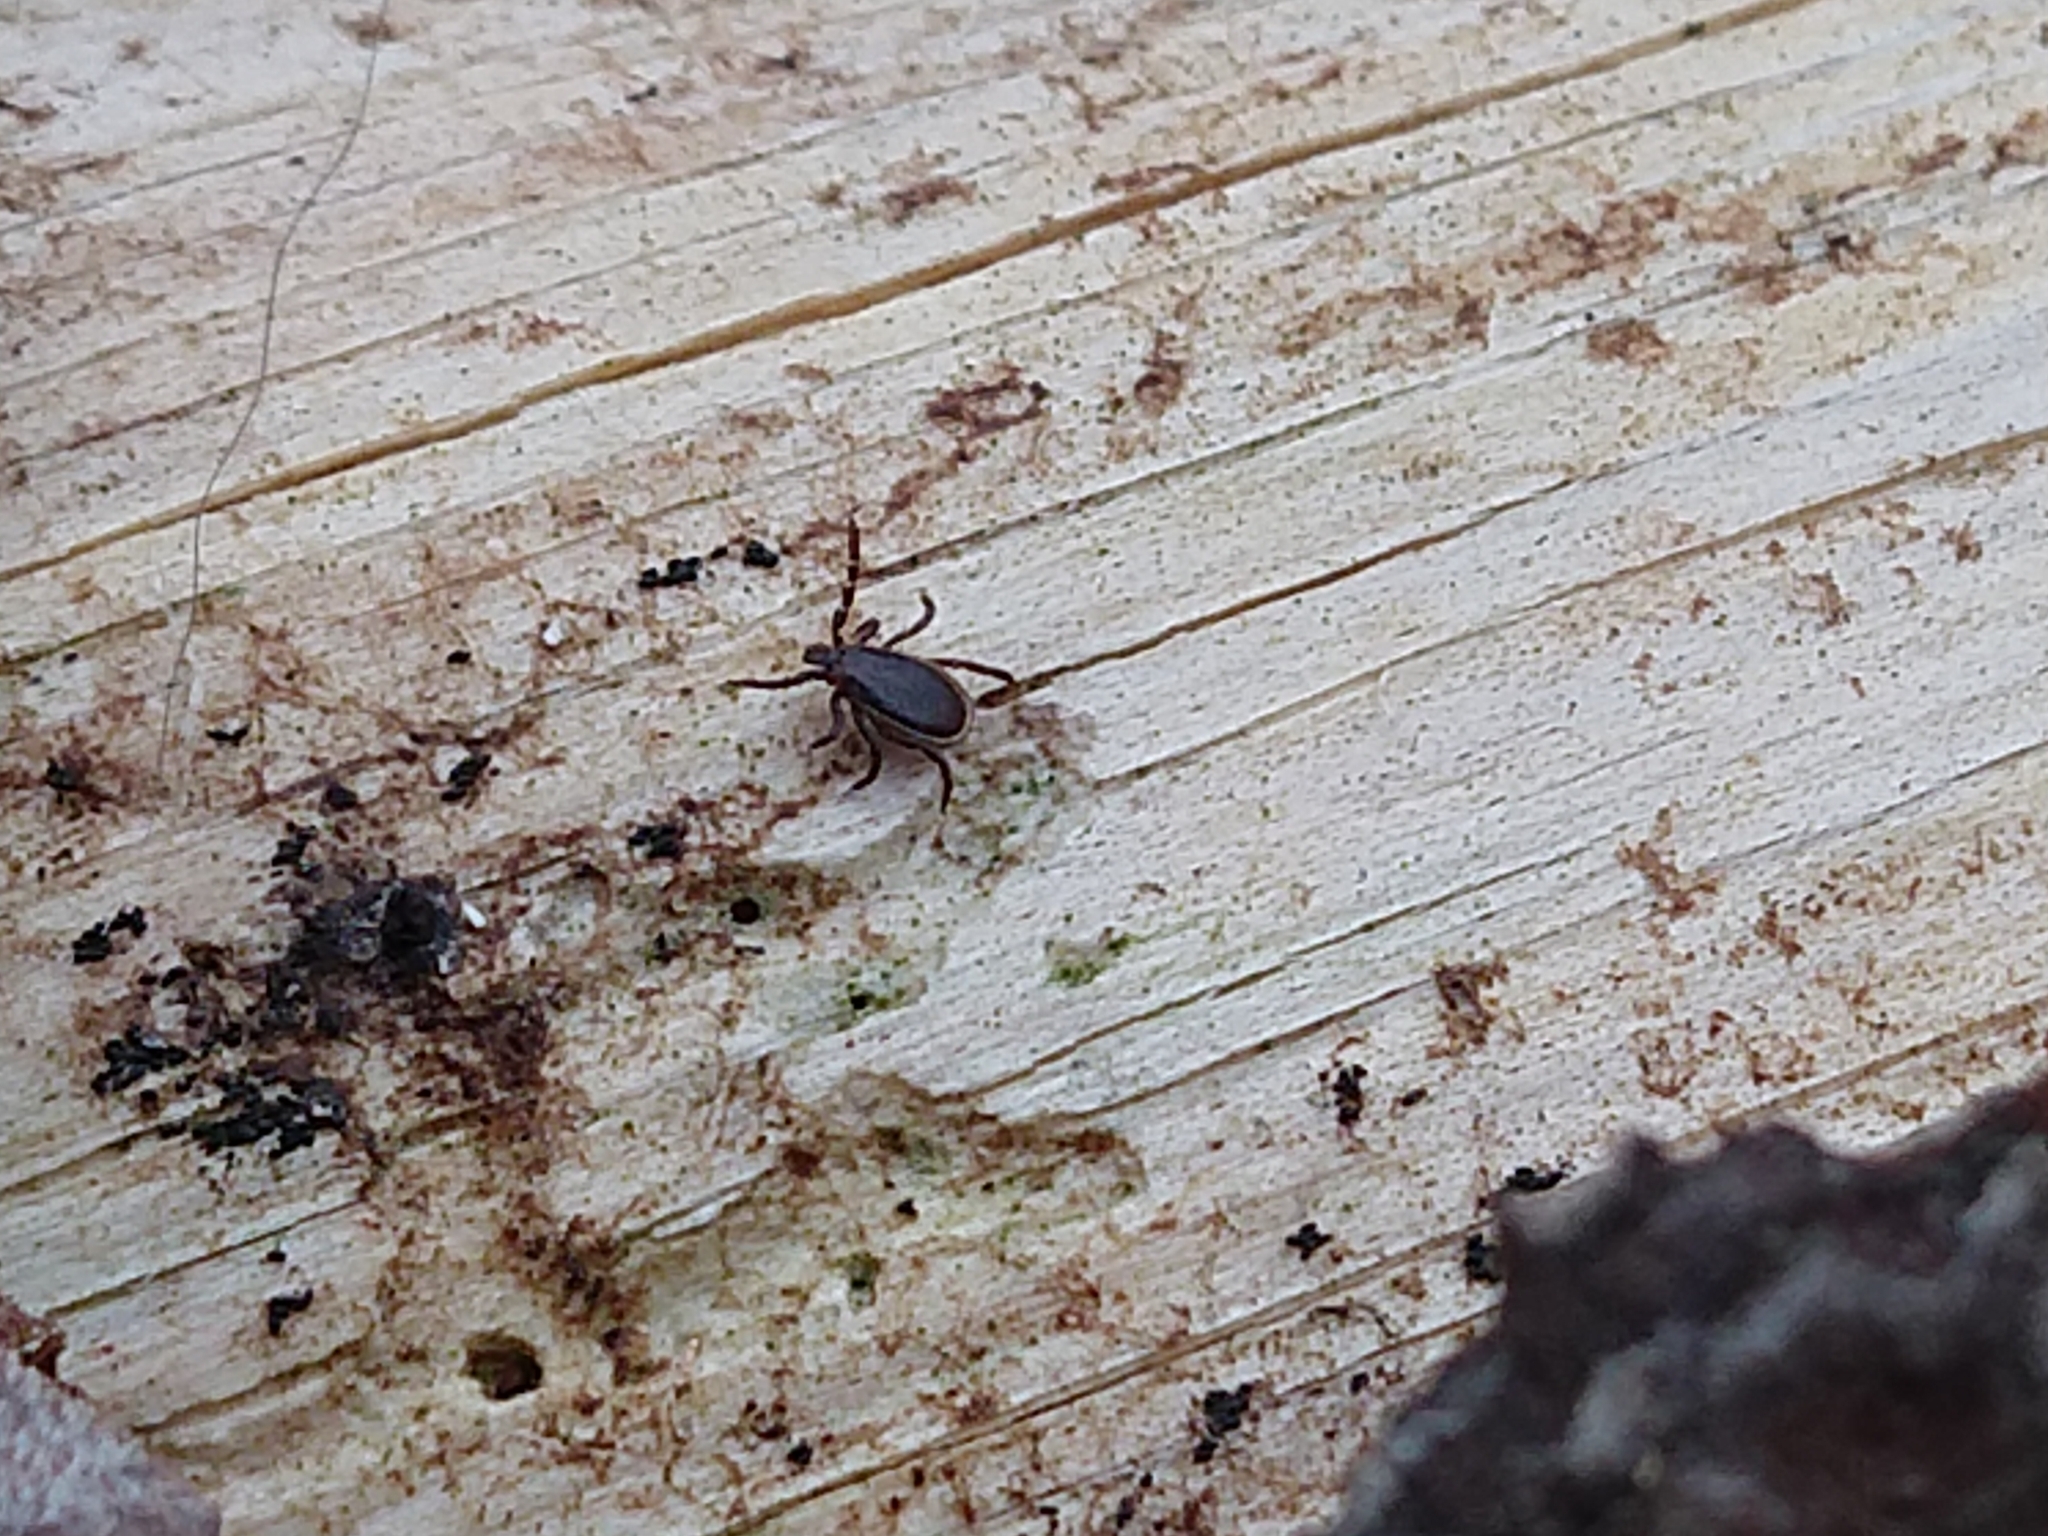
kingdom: Animalia
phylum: Arthropoda
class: Arachnida
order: Ixodida
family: Ixodidae
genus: Ixodes
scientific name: Ixodes scapularis
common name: Black legged tick
